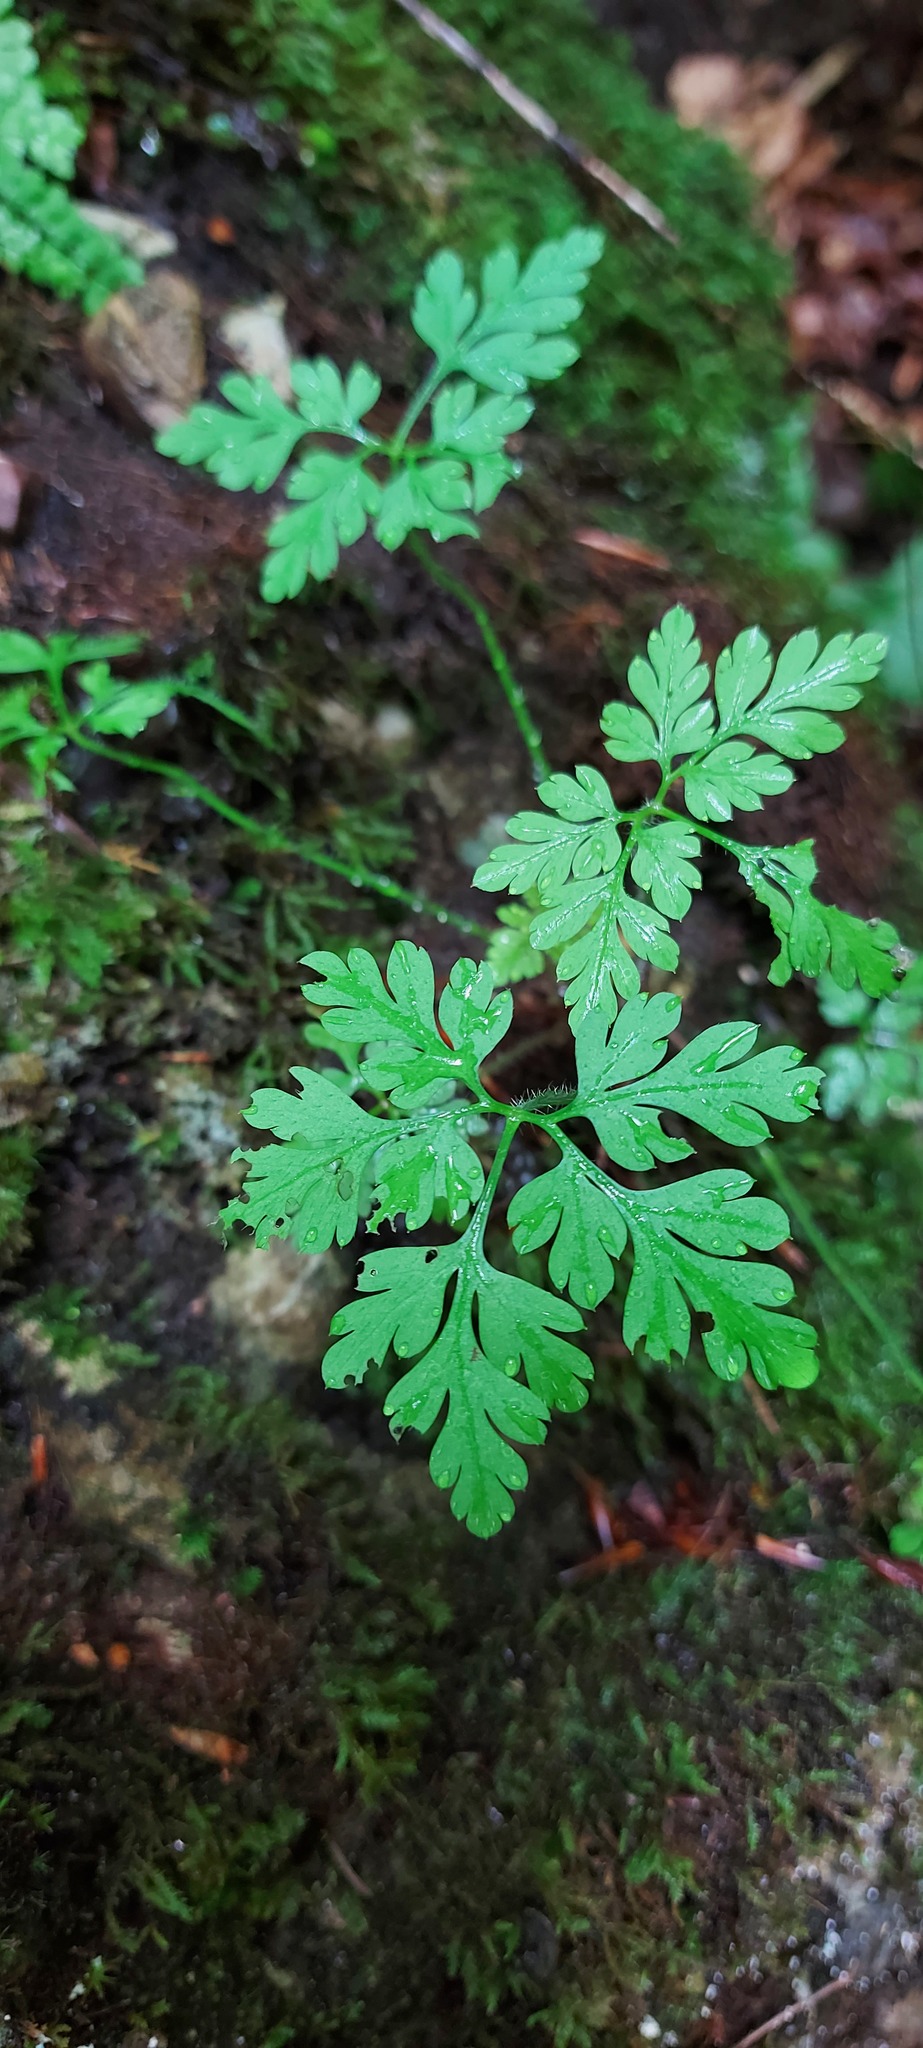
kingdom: Plantae
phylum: Tracheophyta
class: Magnoliopsida
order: Geraniales
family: Geraniaceae
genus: Geranium
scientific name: Geranium robertianum
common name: Herb-robert
